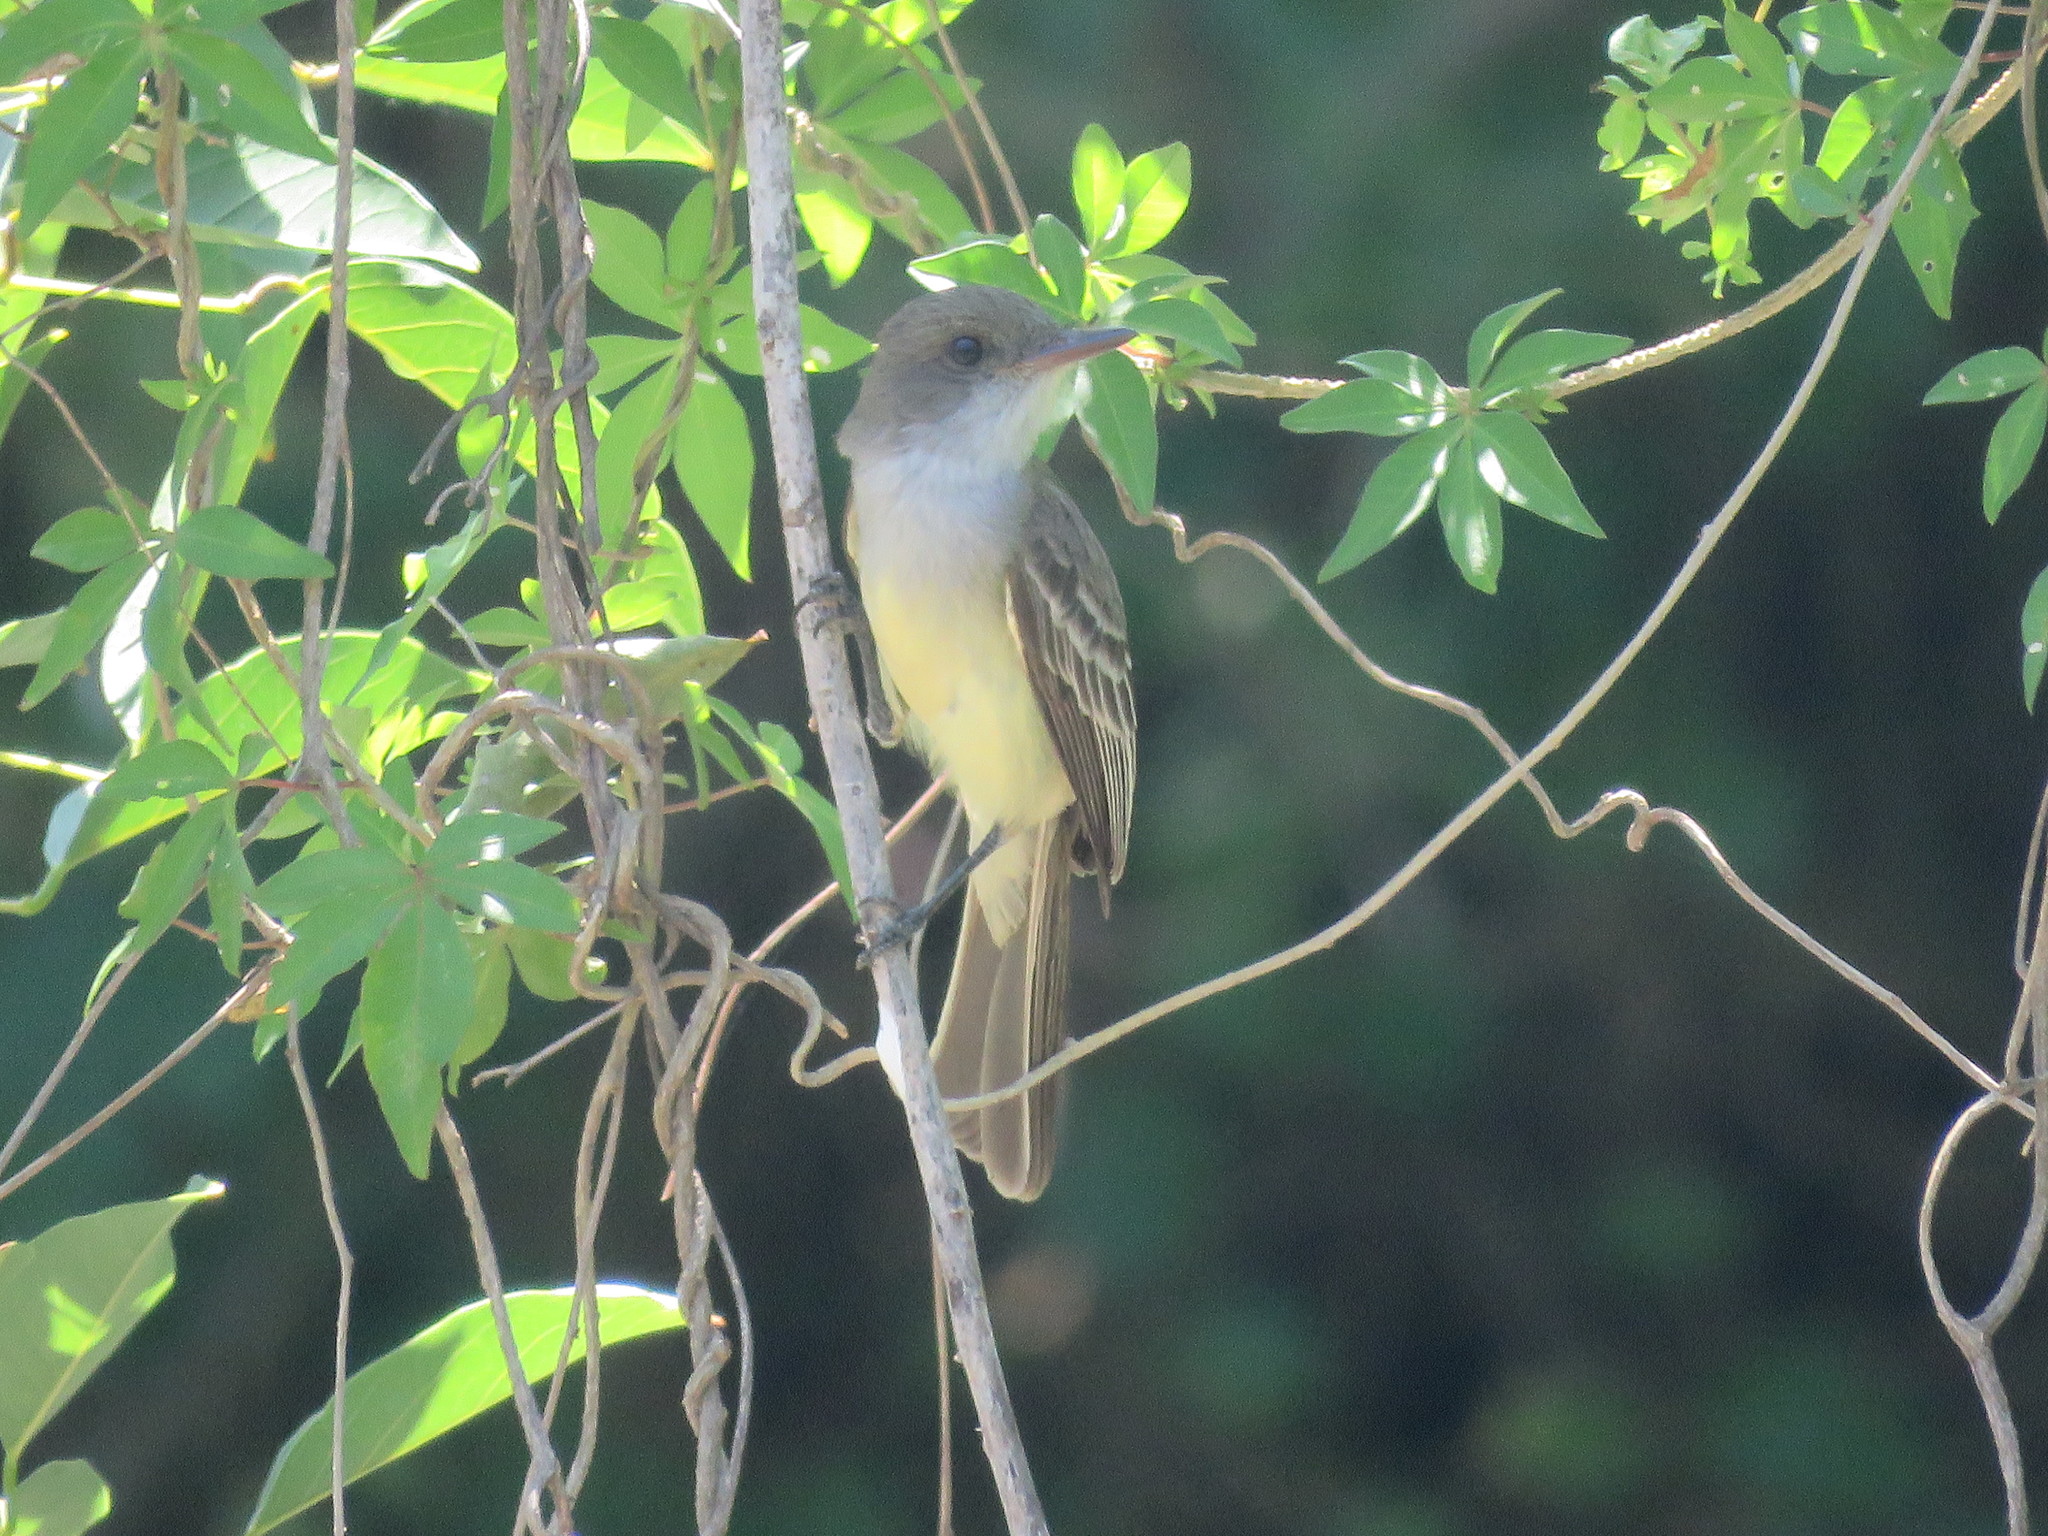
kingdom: Animalia
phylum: Chordata
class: Aves
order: Passeriformes
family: Tyrannidae
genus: Myiarchus
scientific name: Myiarchus swainsoni
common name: Swainson's flycatcher
